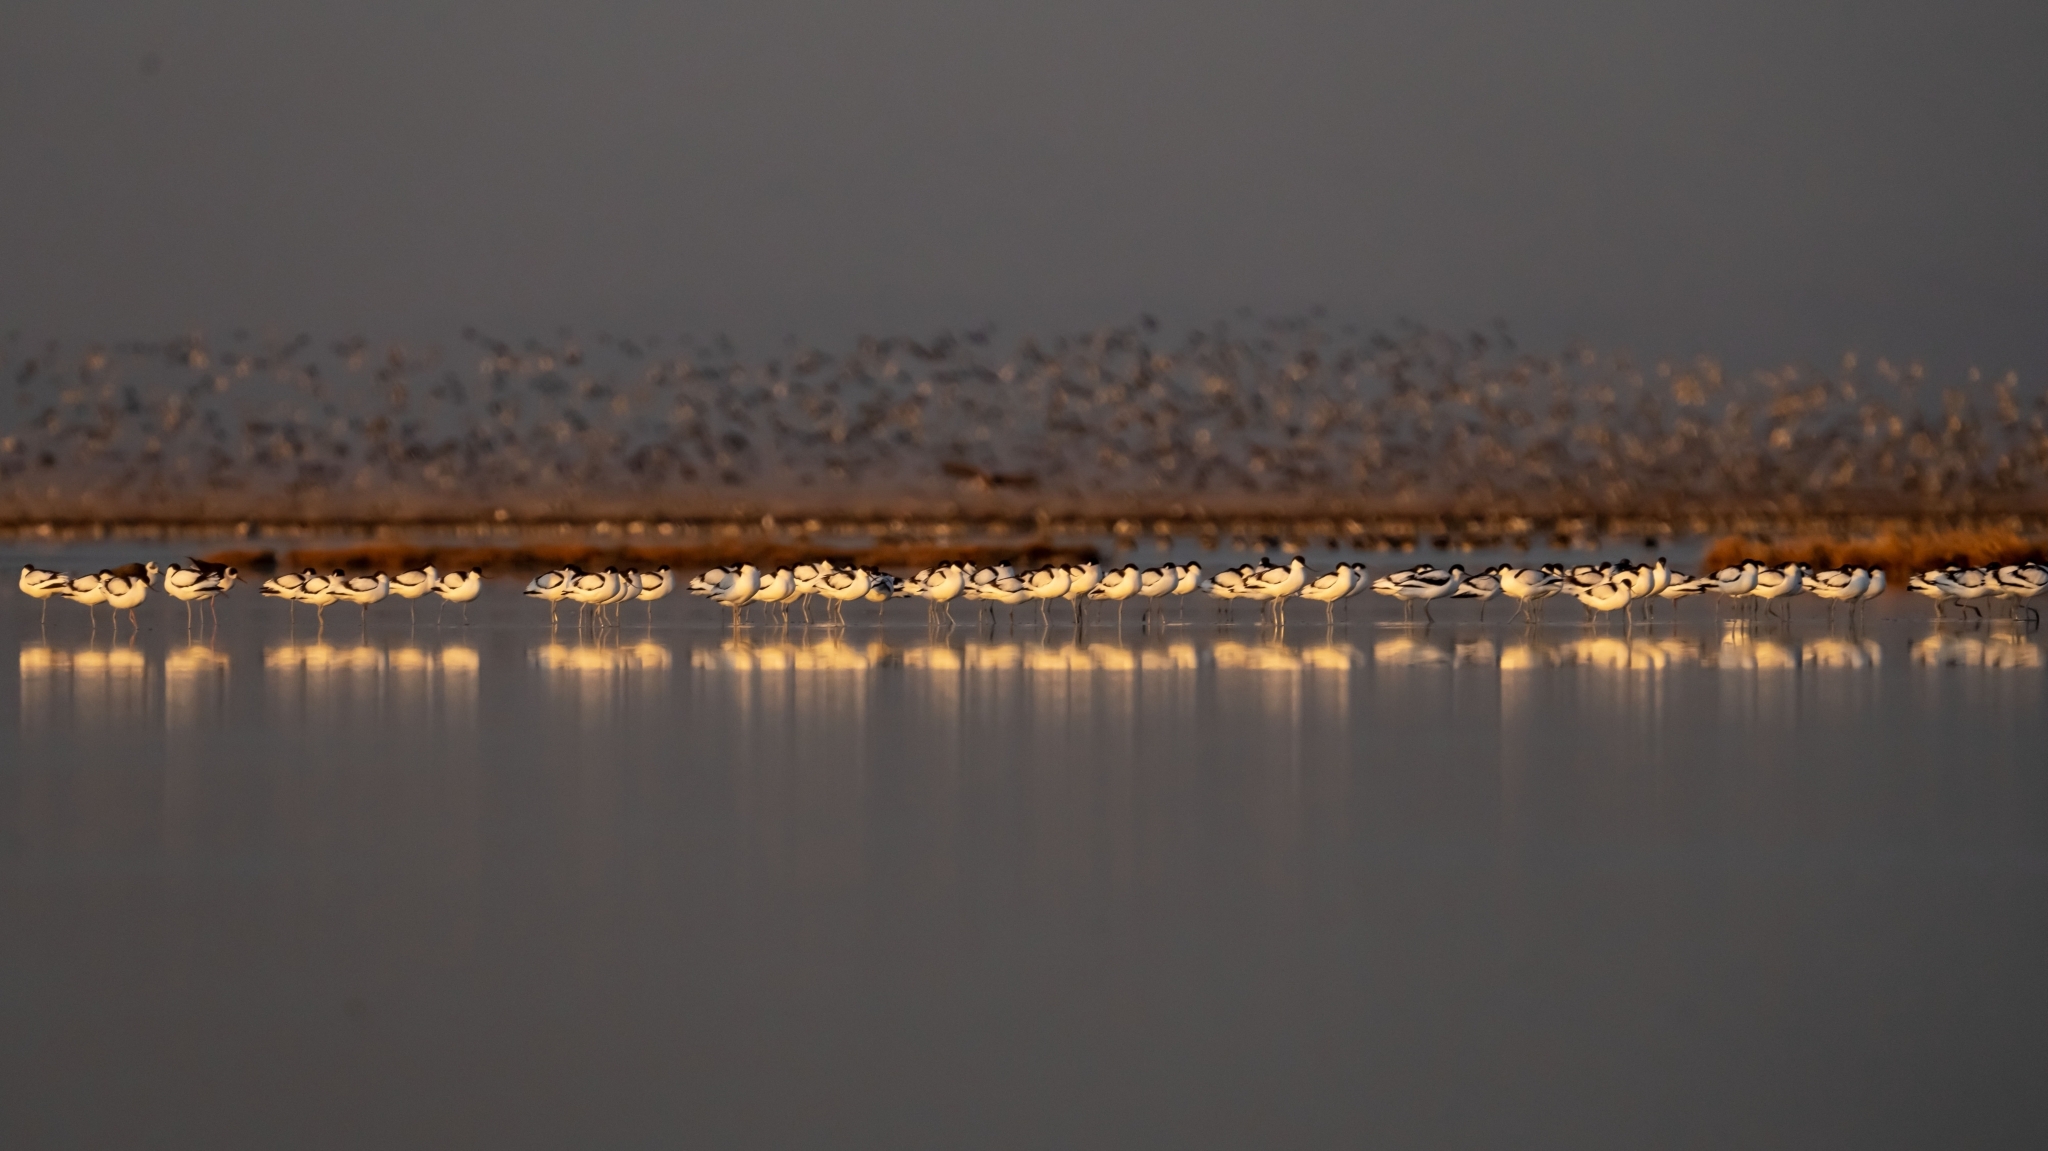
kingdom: Animalia
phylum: Chordata
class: Aves
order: Charadriiformes
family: Recurvirostridae
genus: Recurvirostra
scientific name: Recurvirostra avosetta
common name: Pied avocet
